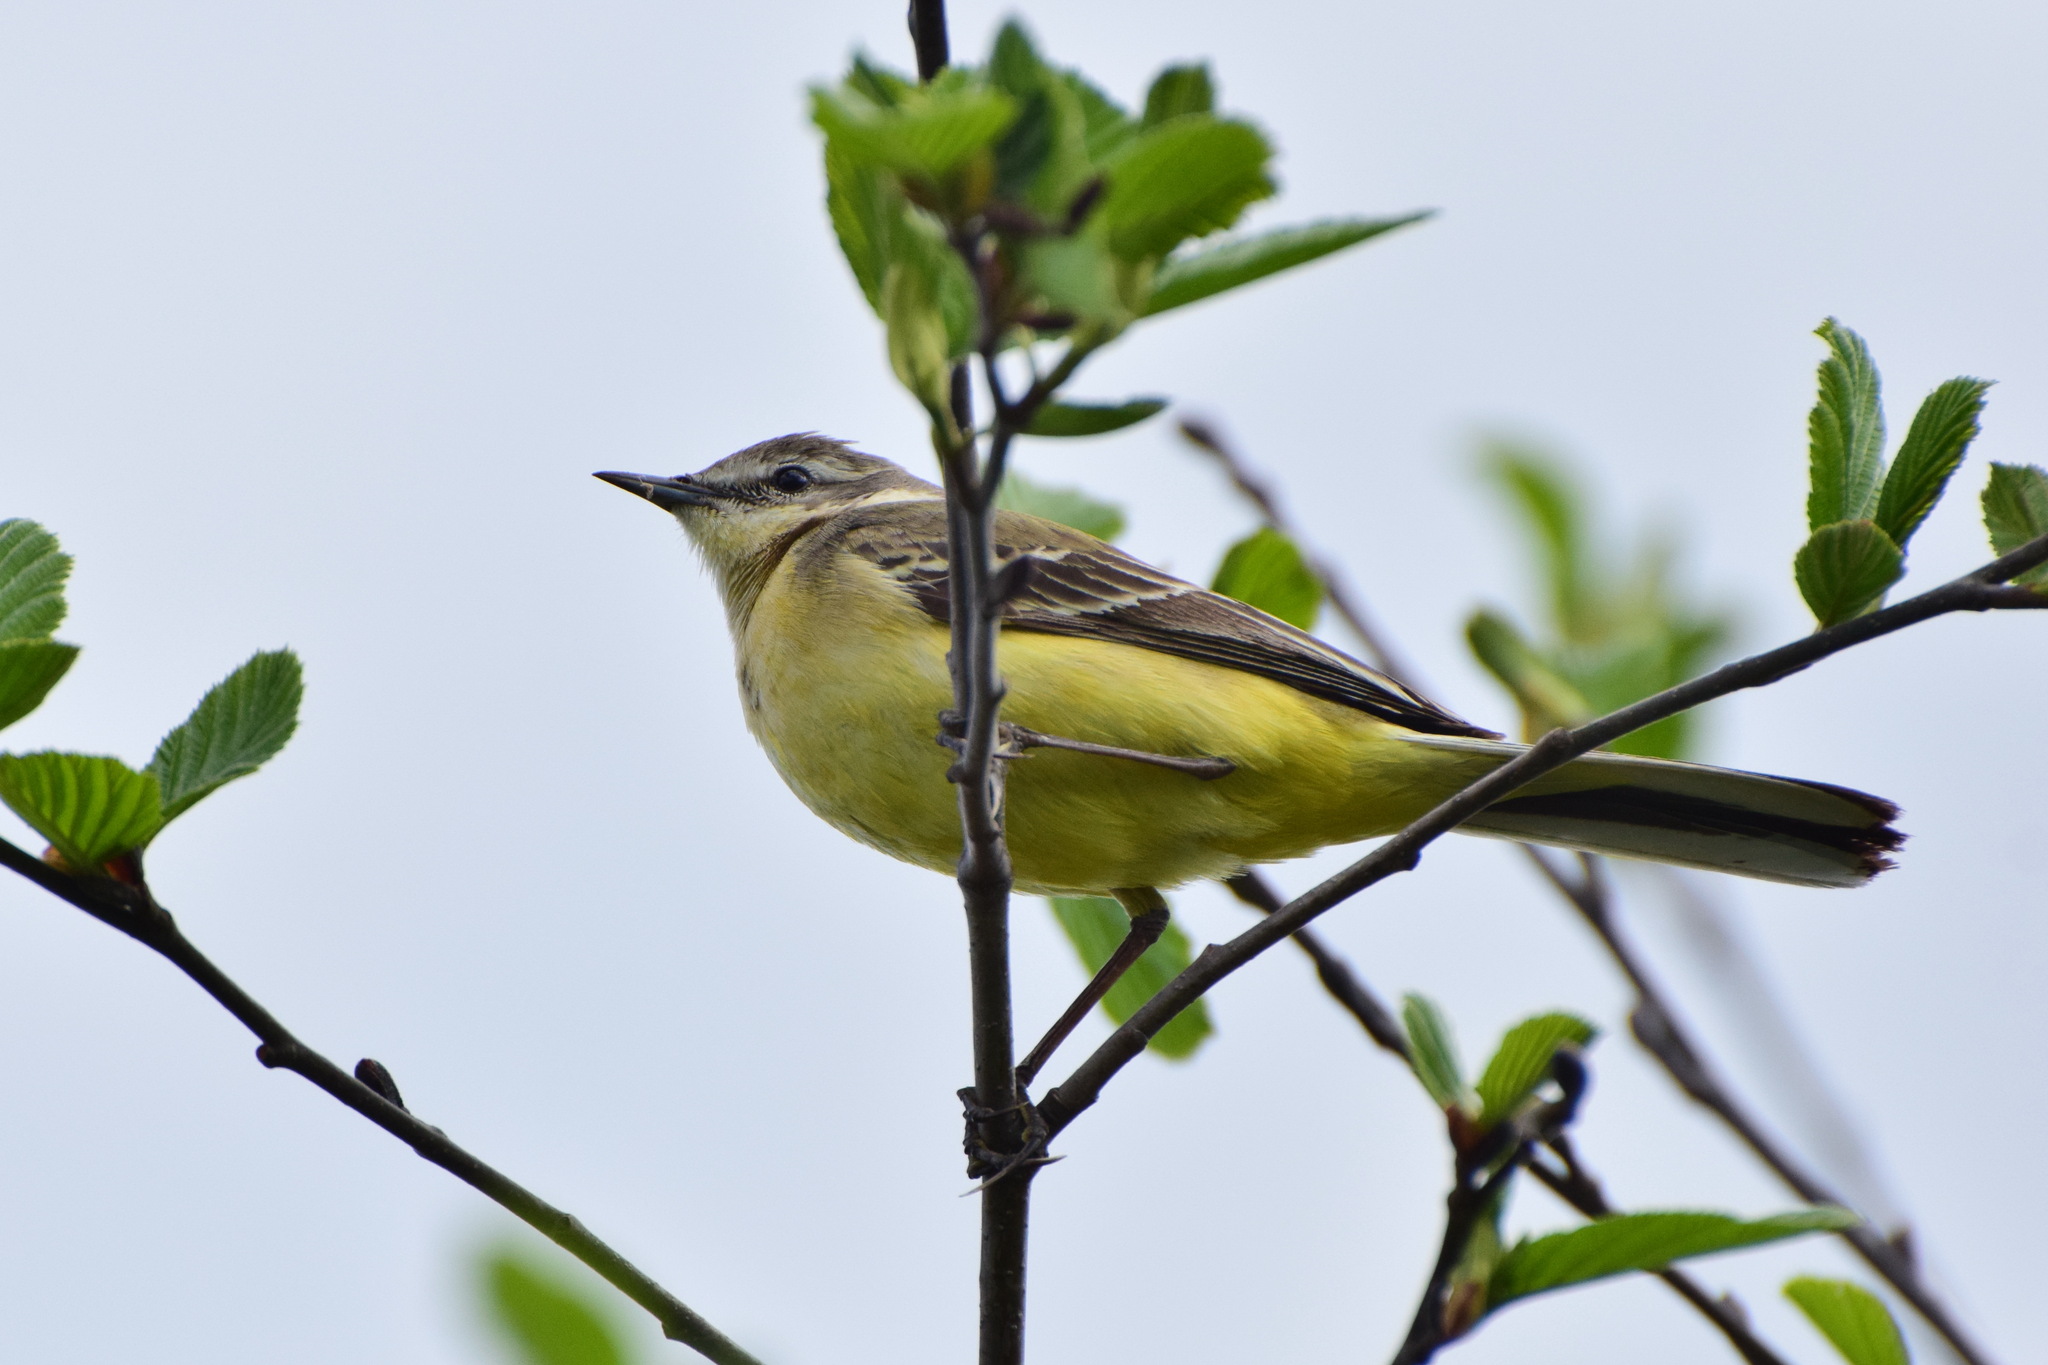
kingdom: Animalia
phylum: Chordata
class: Aves
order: Passeriformes
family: Motacillidae
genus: Motacilla
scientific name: Motacilla flava
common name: Western yellow wagtail
